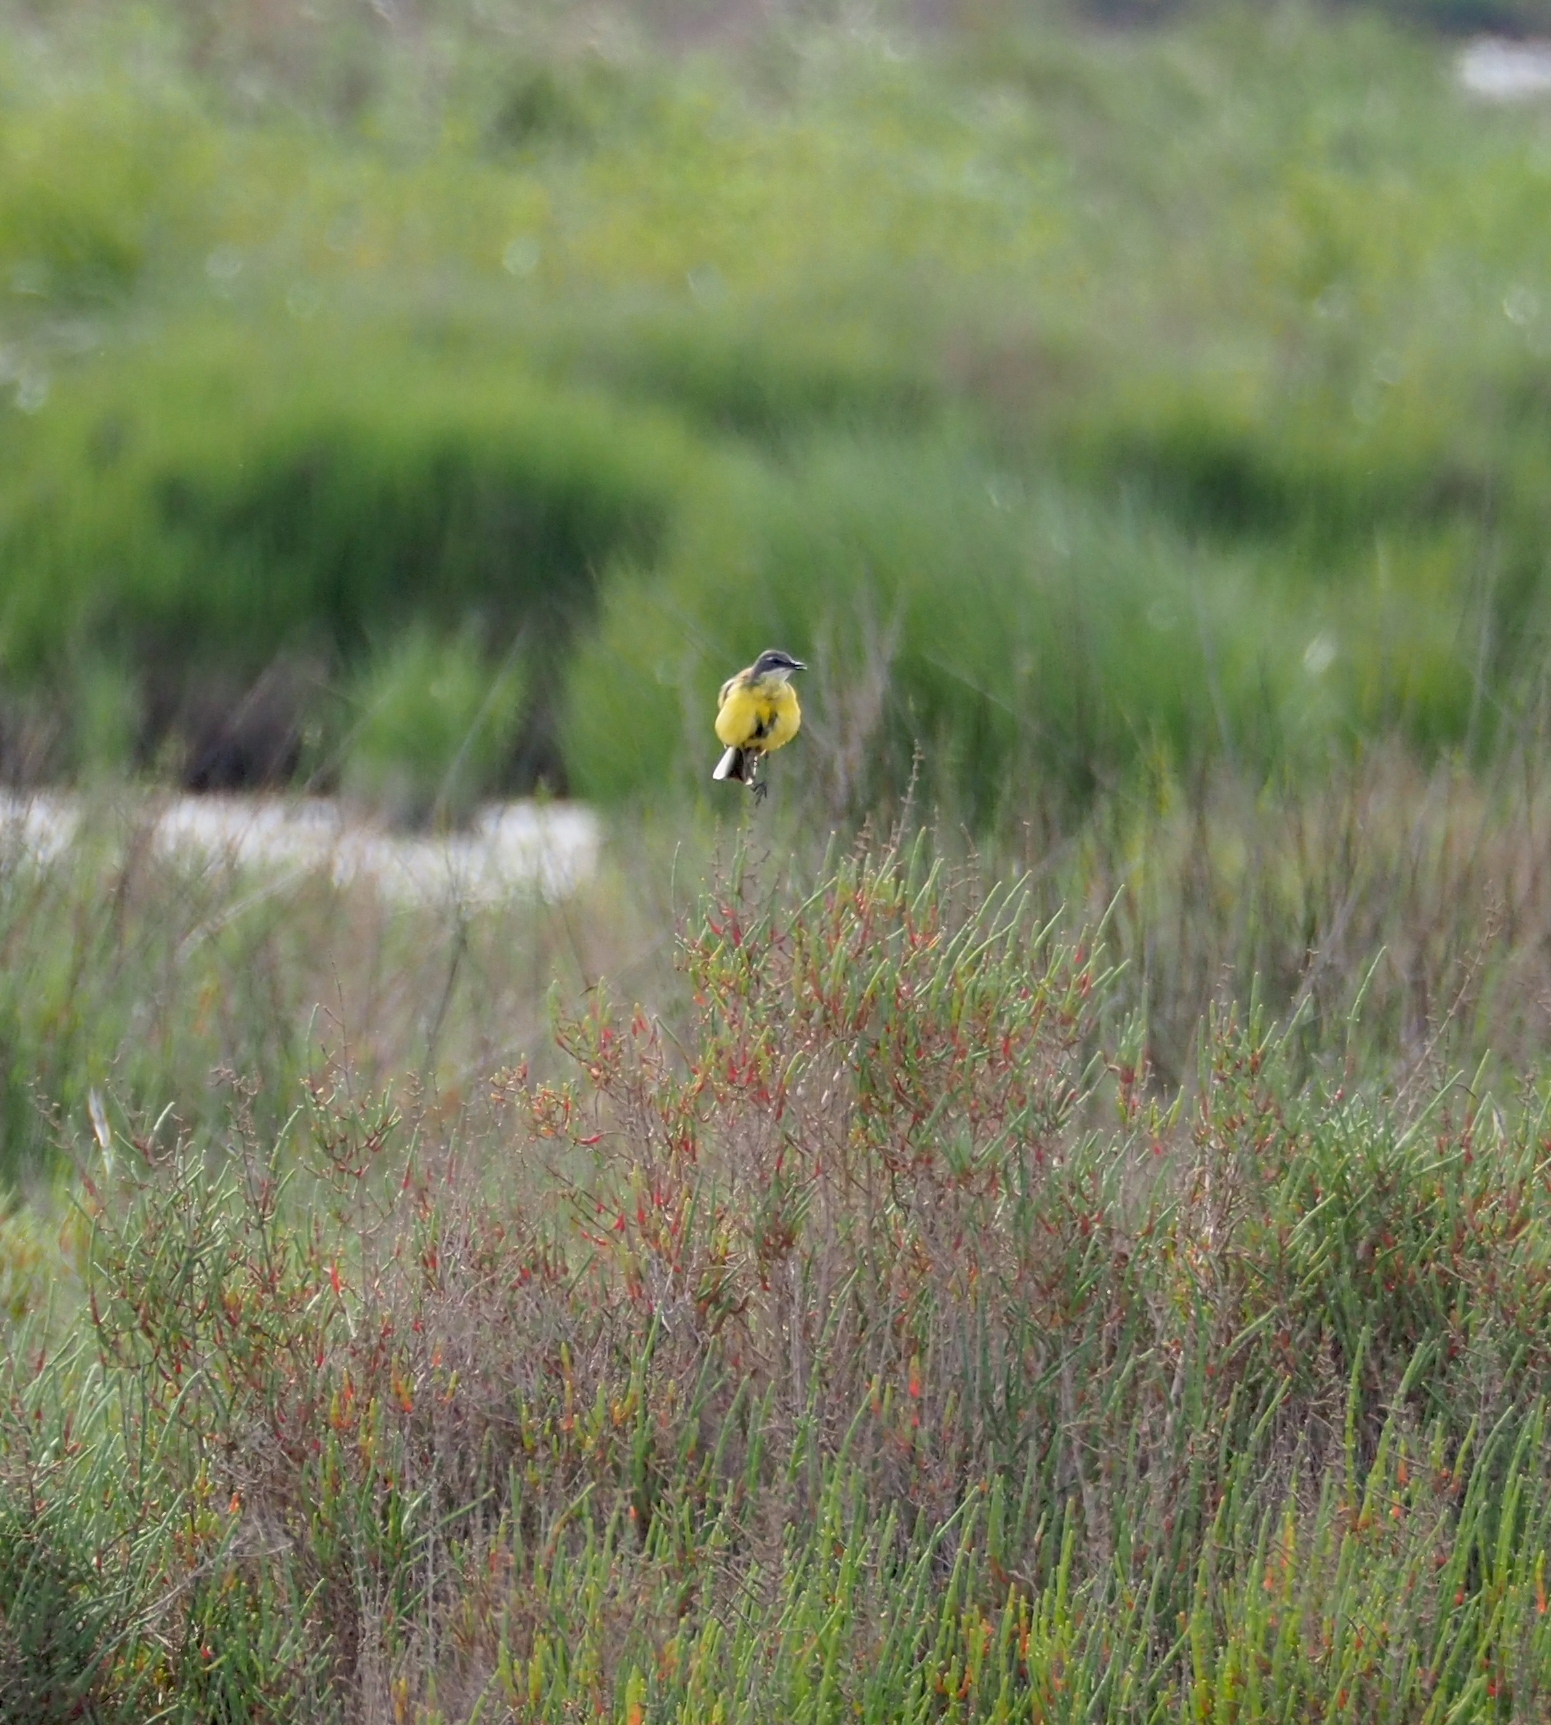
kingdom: Animalia
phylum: Chordata
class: Aves
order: Passeriformes
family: Motacillidae
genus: Motacilla
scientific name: Motacilla flava
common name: Western yellow wagtail
